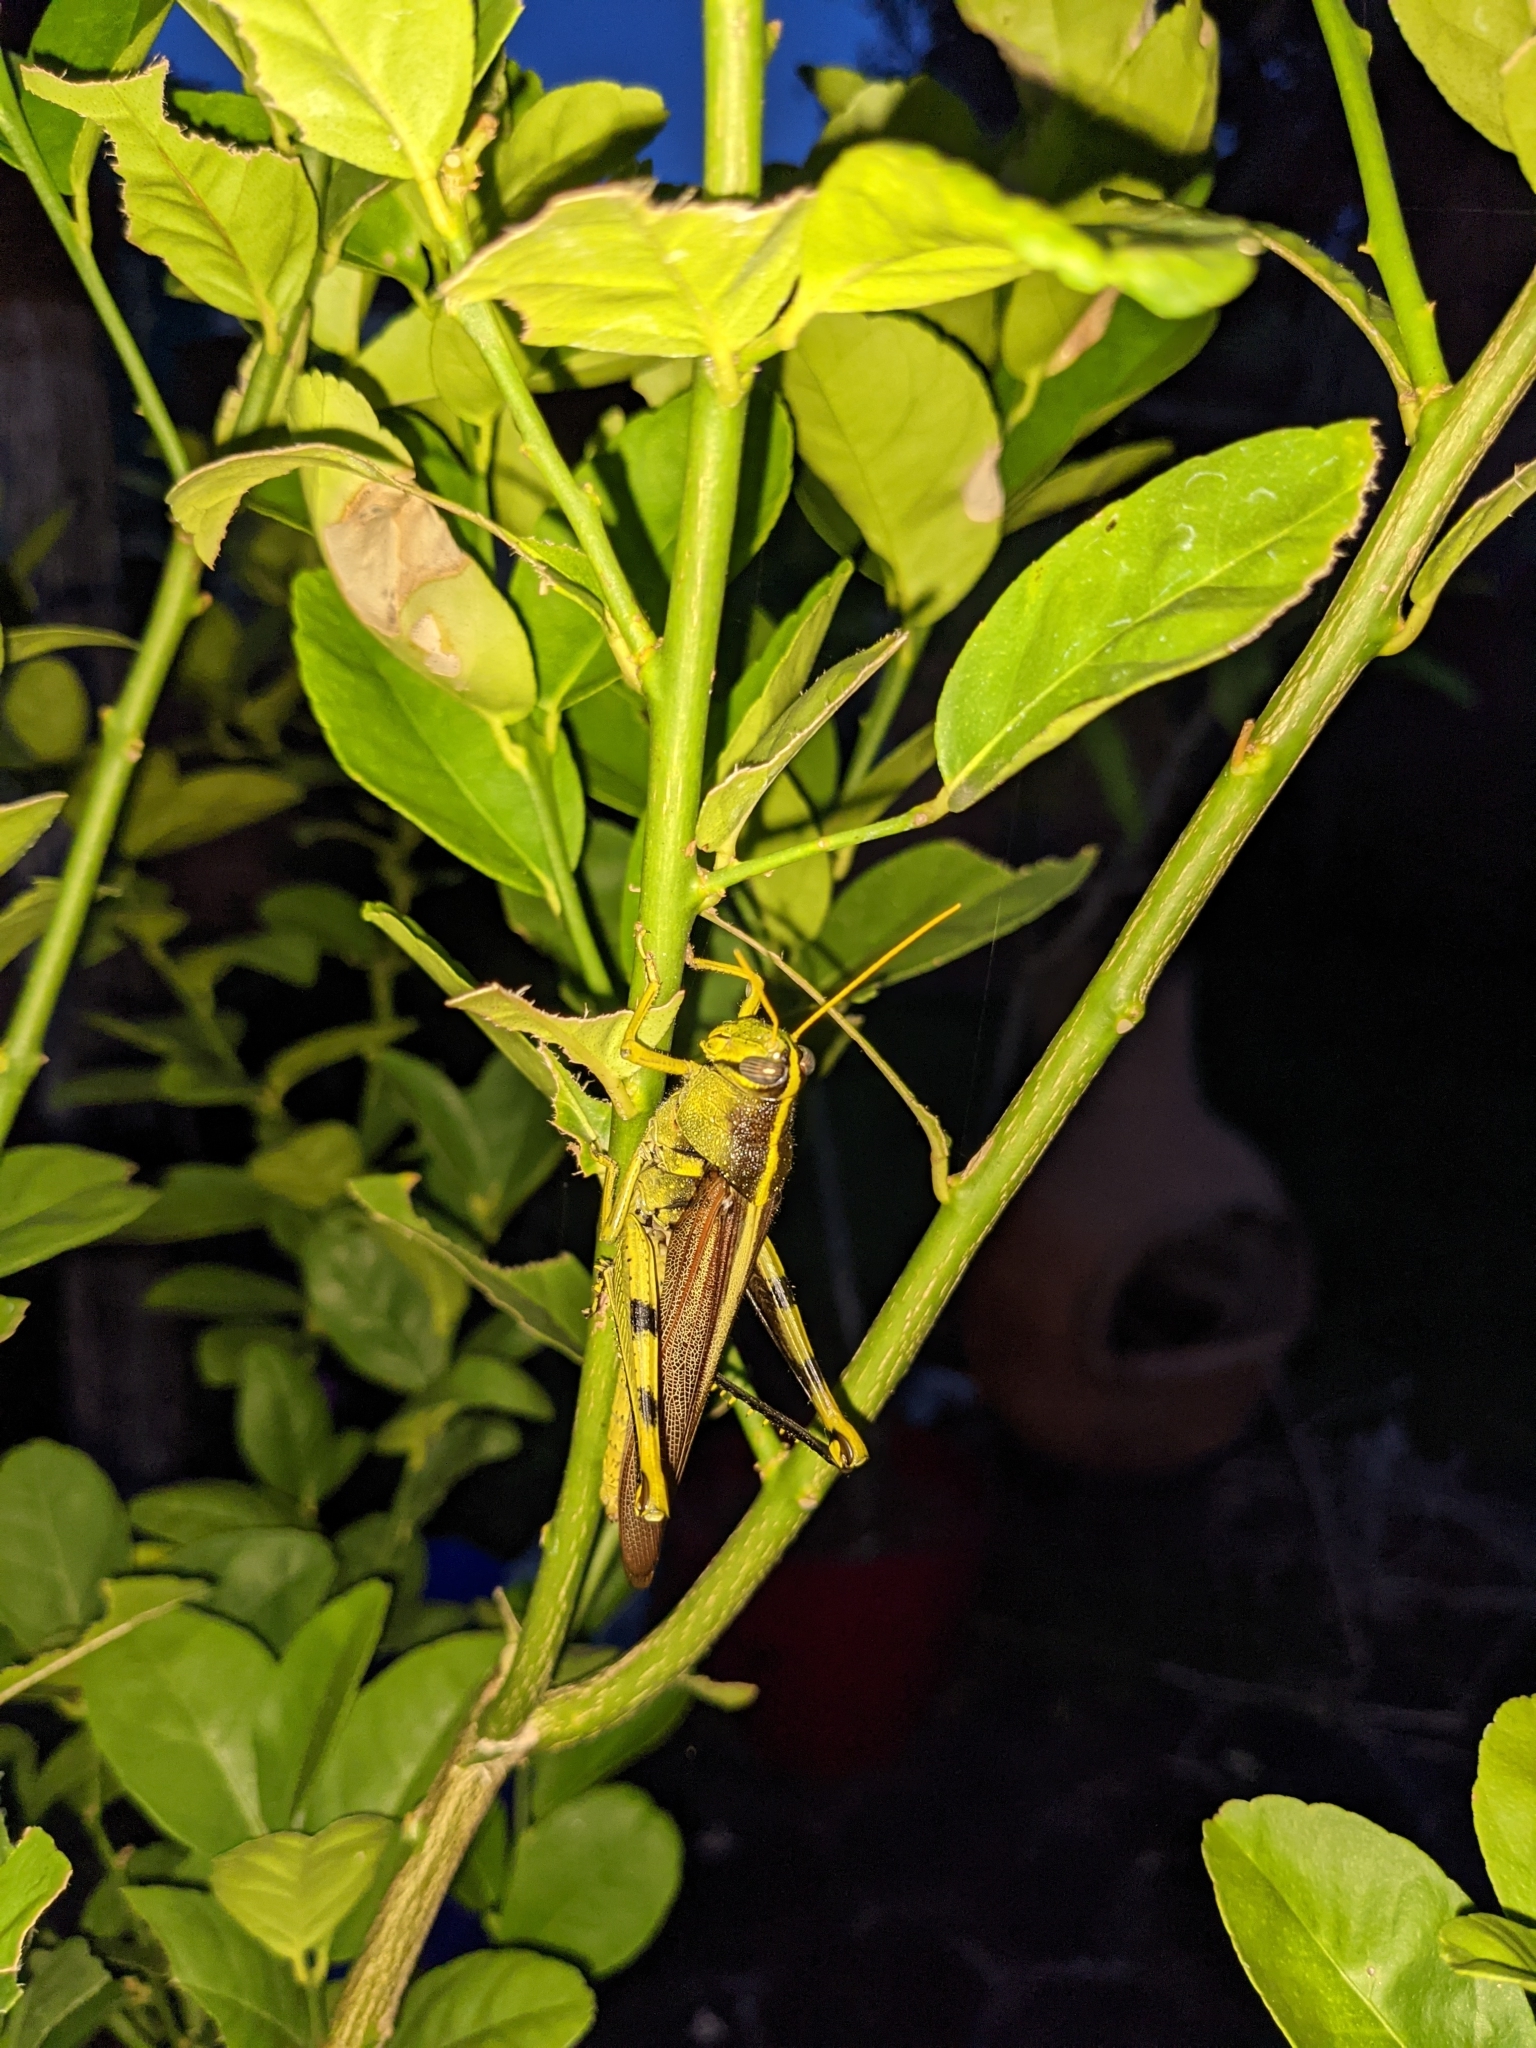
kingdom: Animalia
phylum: Arthropoda
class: Insecta
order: Orthoptera
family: Acrididae
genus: Schistocerca
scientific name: Schistocerca obscura
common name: Obscure bird grasshopper
